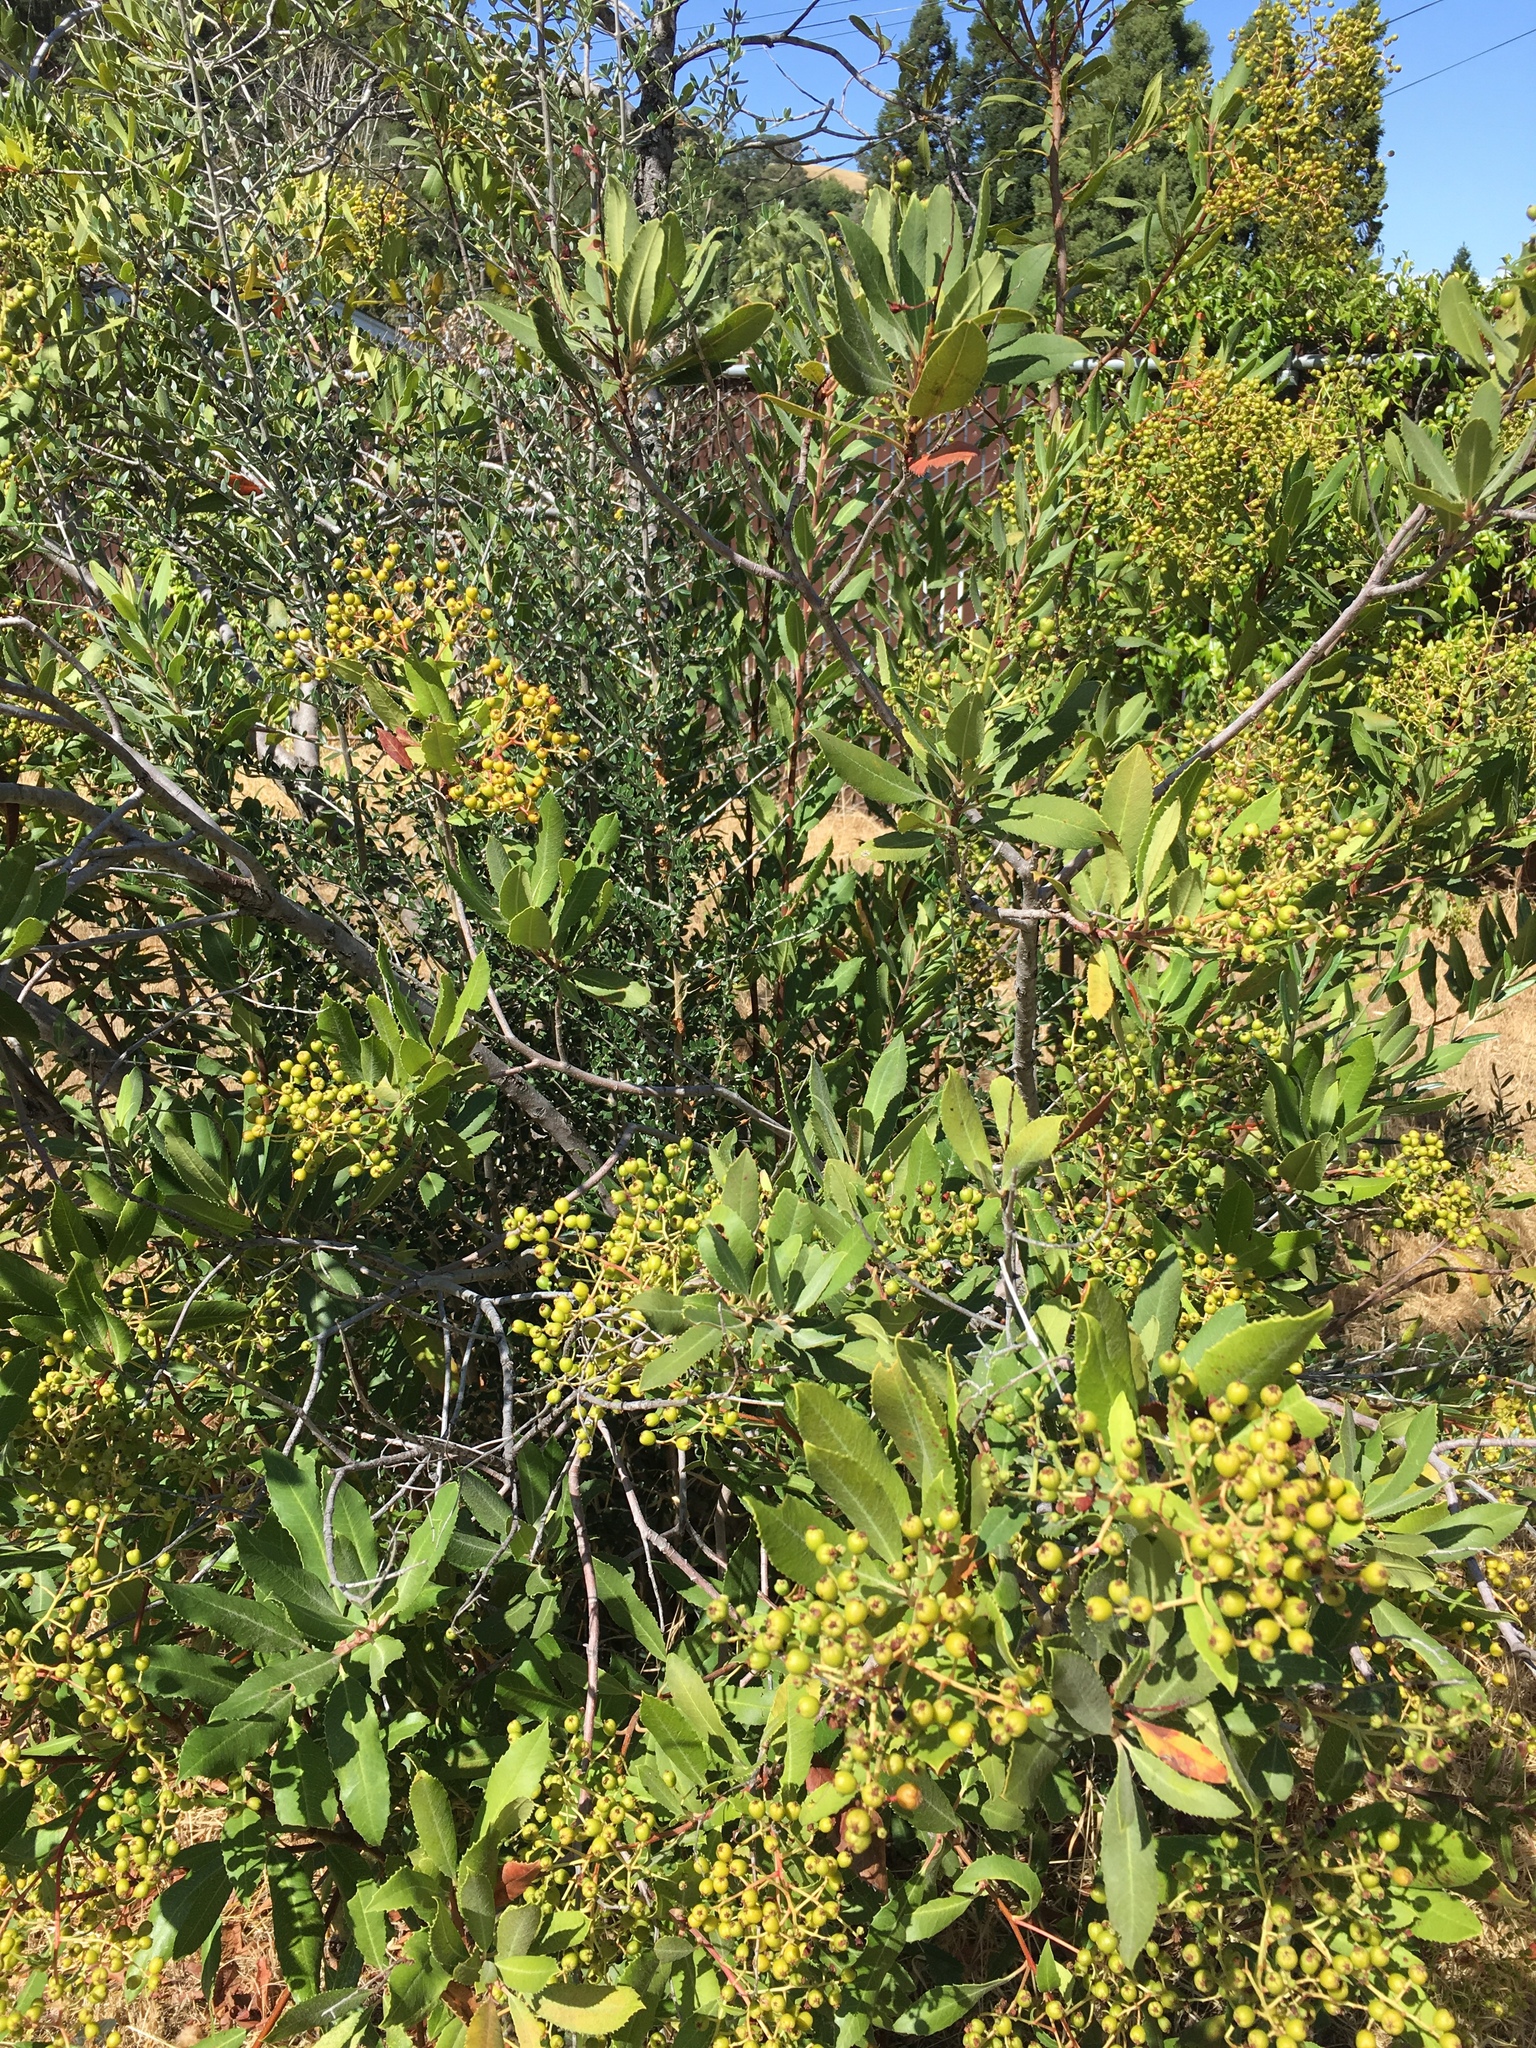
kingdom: Plantae
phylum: Tracheophyta
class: Magnoliopsida
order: Rosales
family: Rosaceae
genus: Heteromeles
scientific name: Heteromeles arbutifolia
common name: California-holly
